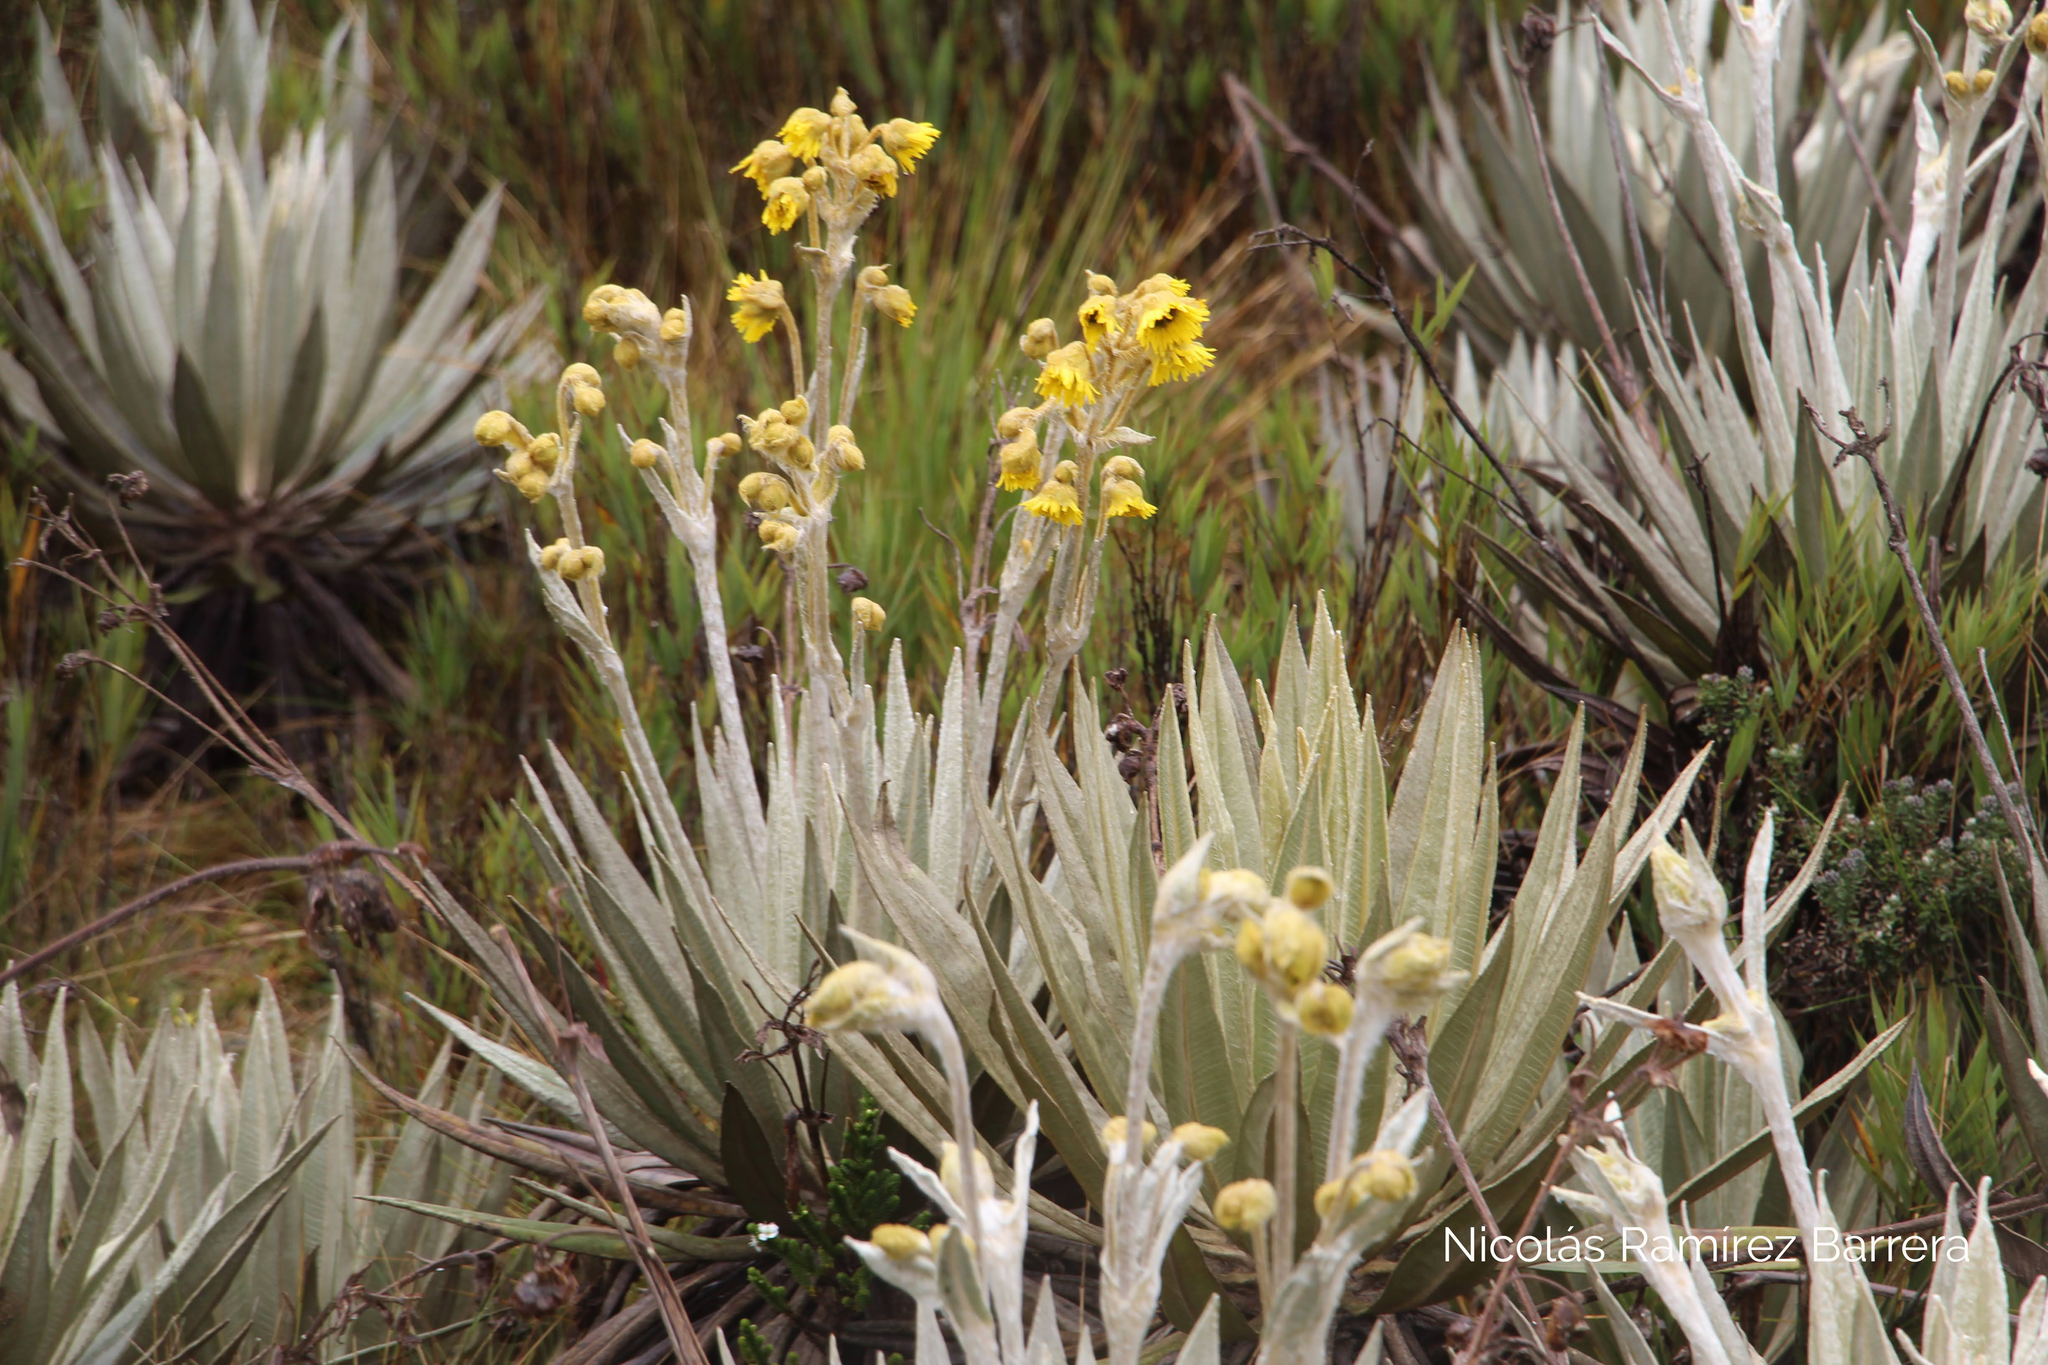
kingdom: Plantae
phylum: Tracheophyta
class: Magnoliopsida
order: Asterales
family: Asteraceae
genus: Espeletia
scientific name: Espeletia grandiflora
